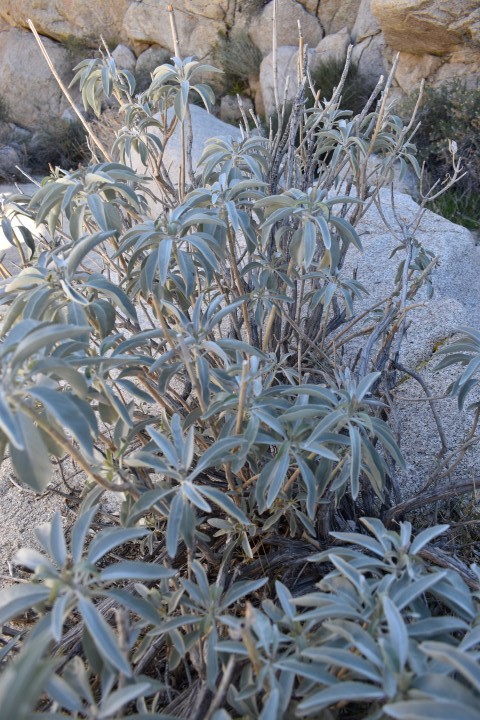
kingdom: Plantae
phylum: Tracheophyta
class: Magnoliopsida
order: Lamiales
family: Lamiaceae
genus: Salvia
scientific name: Salvia apiana
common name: White sage
